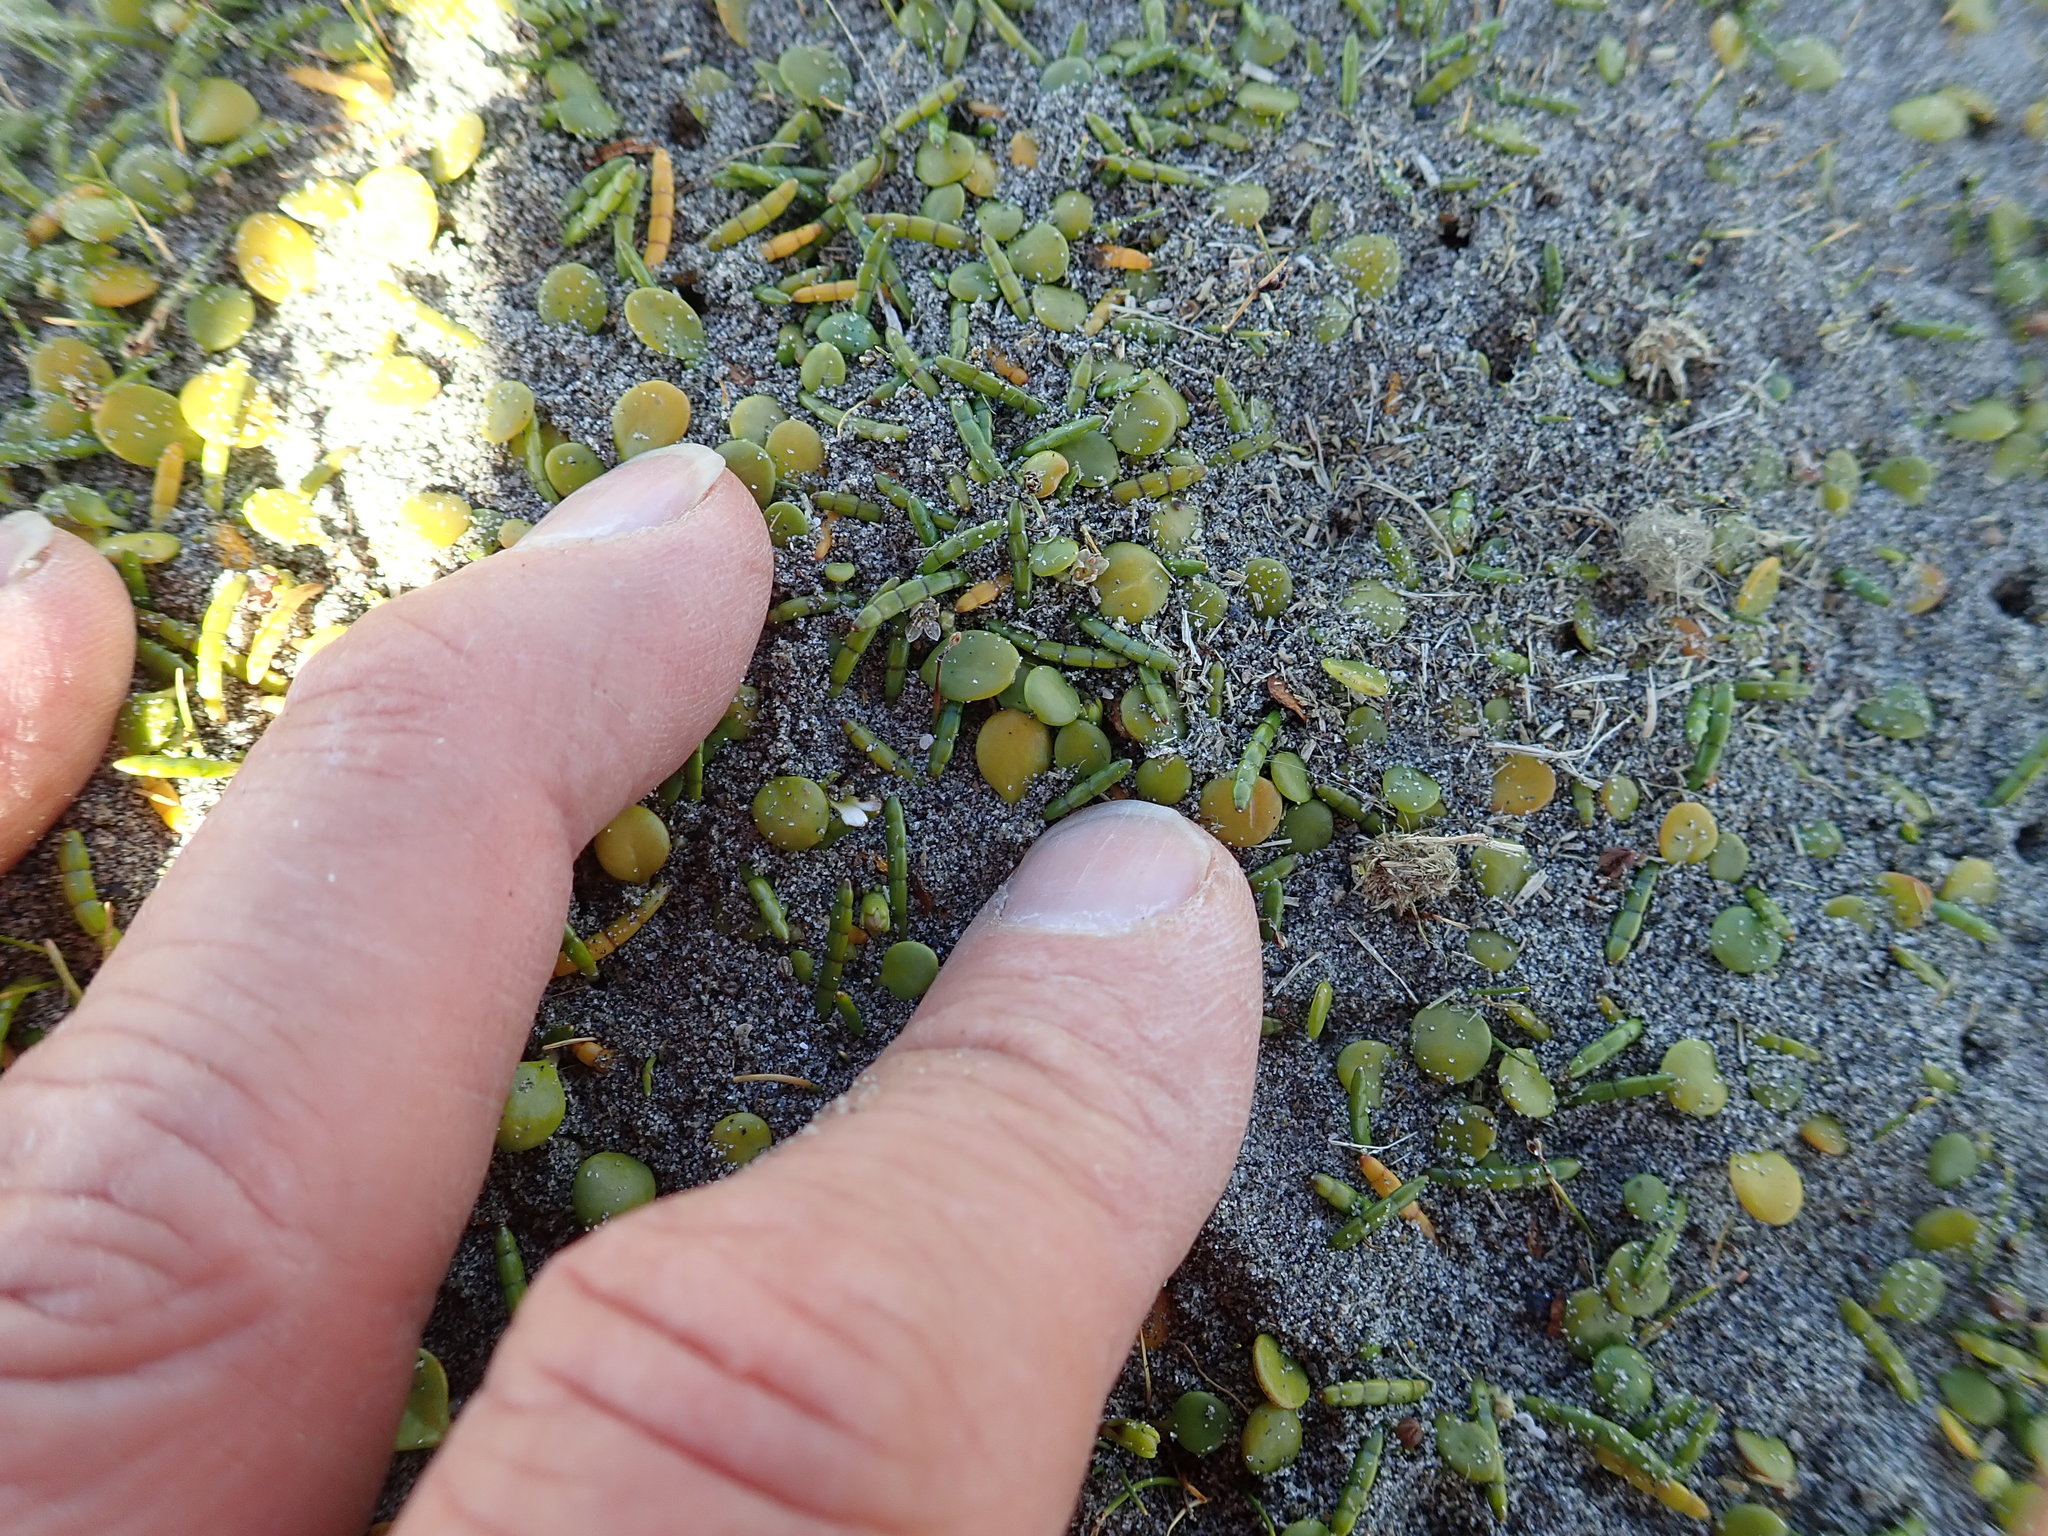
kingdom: Plantae
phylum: Tracheophyta
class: Magnoliopsida
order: Apiales
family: Apiaceae
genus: Lilaeopsis
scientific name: Lilaeopsis novae-zelandiae
